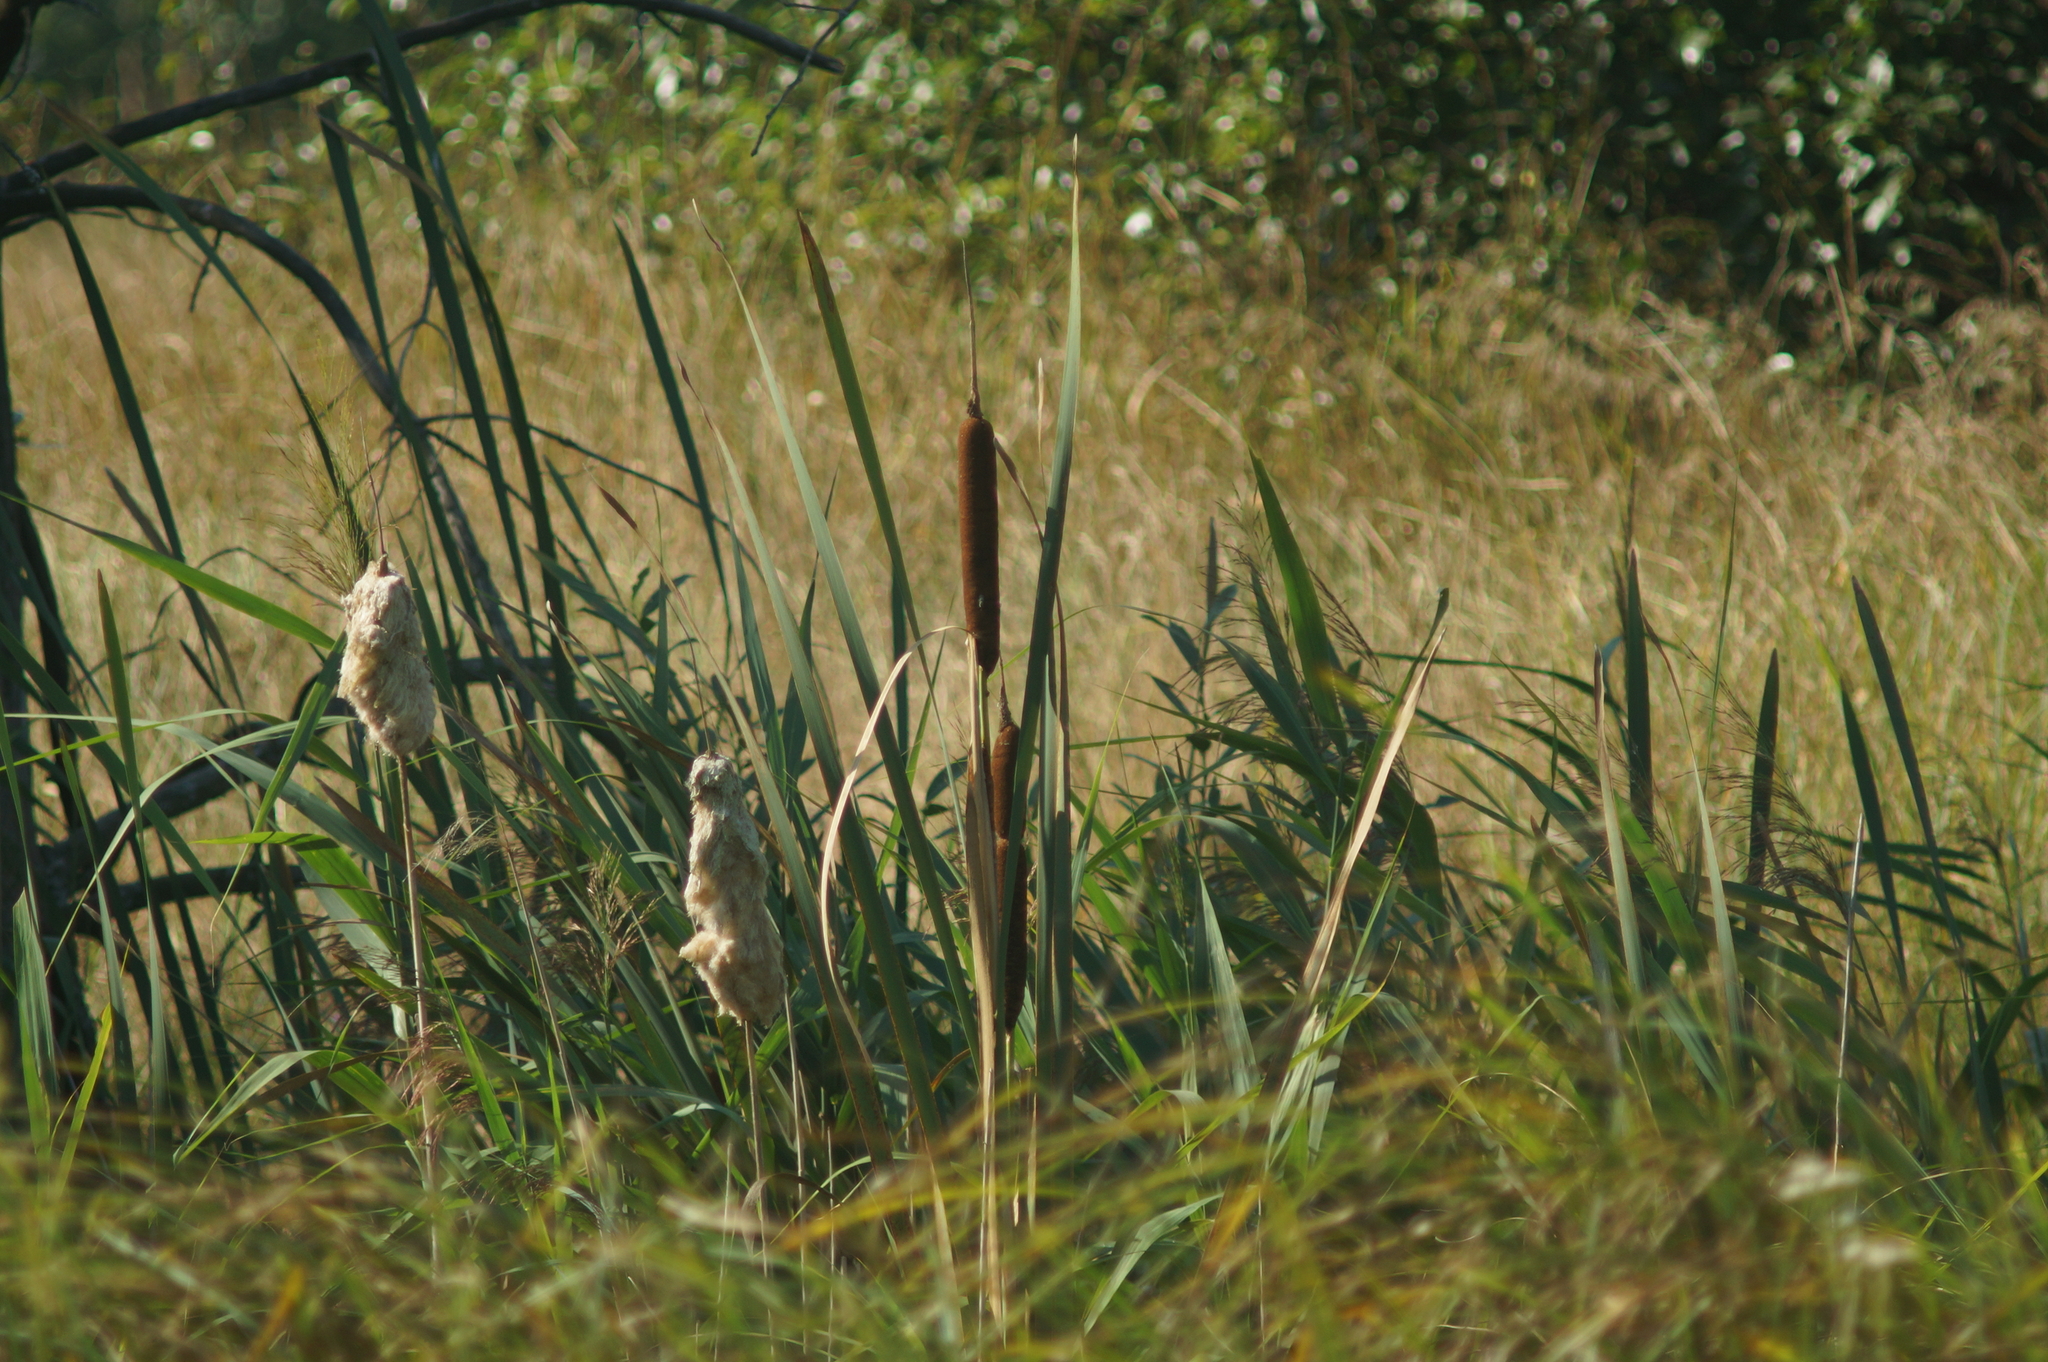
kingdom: Plantae
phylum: Tracheophyta
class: Liliopsida
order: Poales
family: Typhaceae
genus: Typha
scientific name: Typha latifolia
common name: Broadleaf cattail
